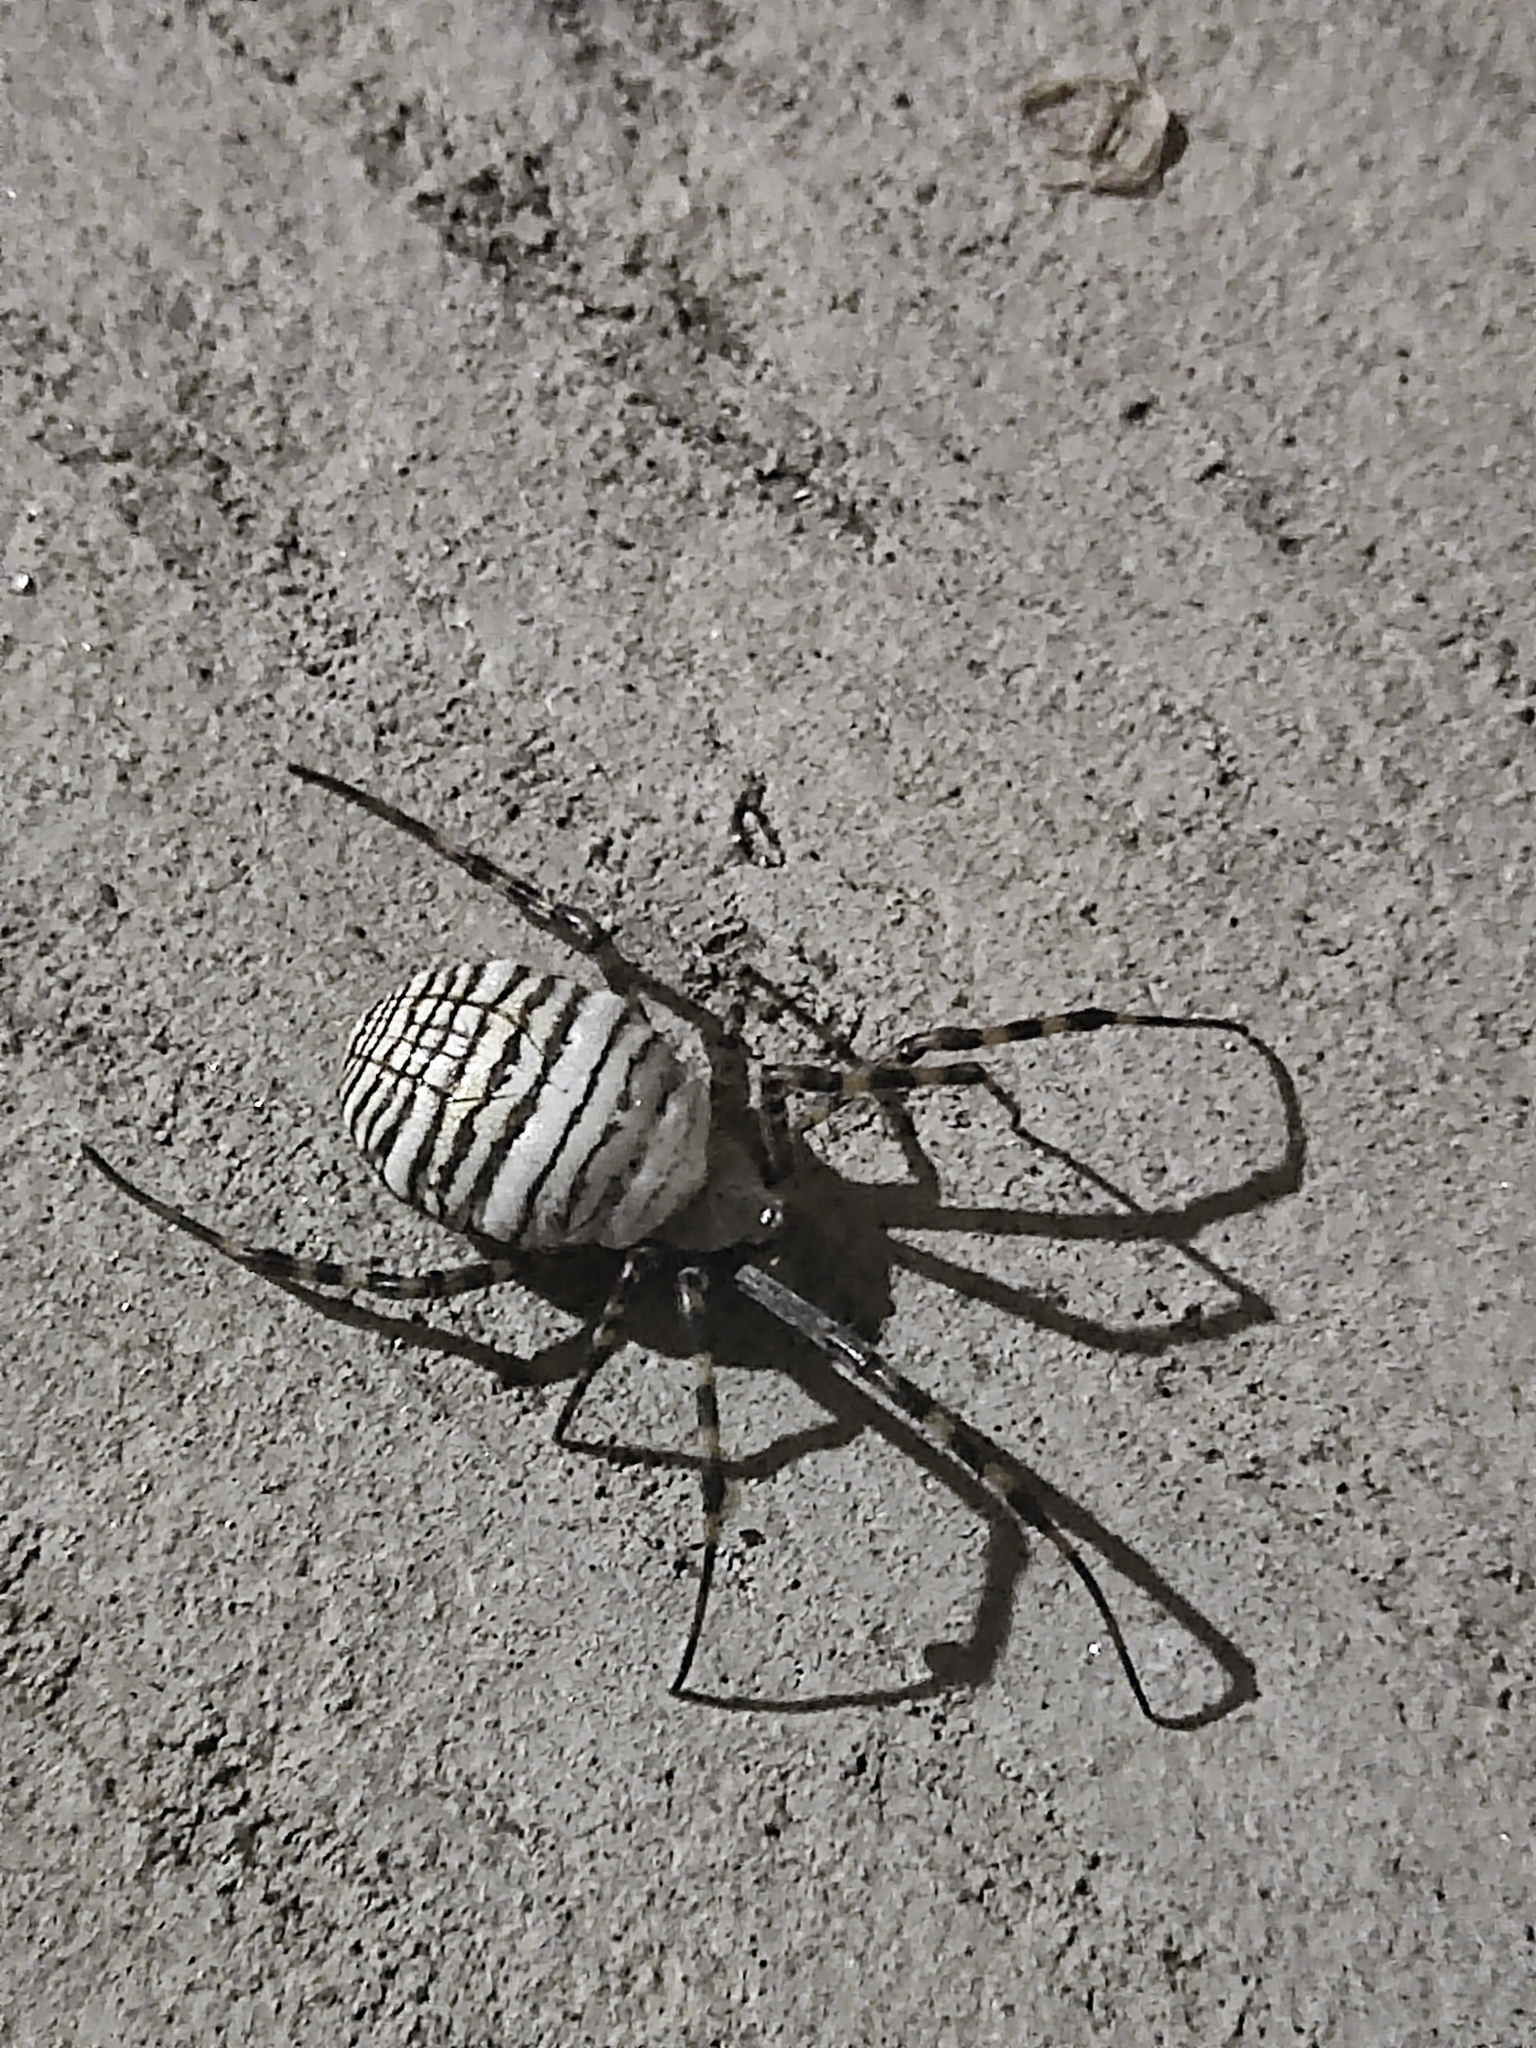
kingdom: Animalia
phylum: Arthropoda
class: Arachnida
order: Araneae
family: Araneidae
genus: Argiope
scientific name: Argiope trifasciata
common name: Banded garden spider
